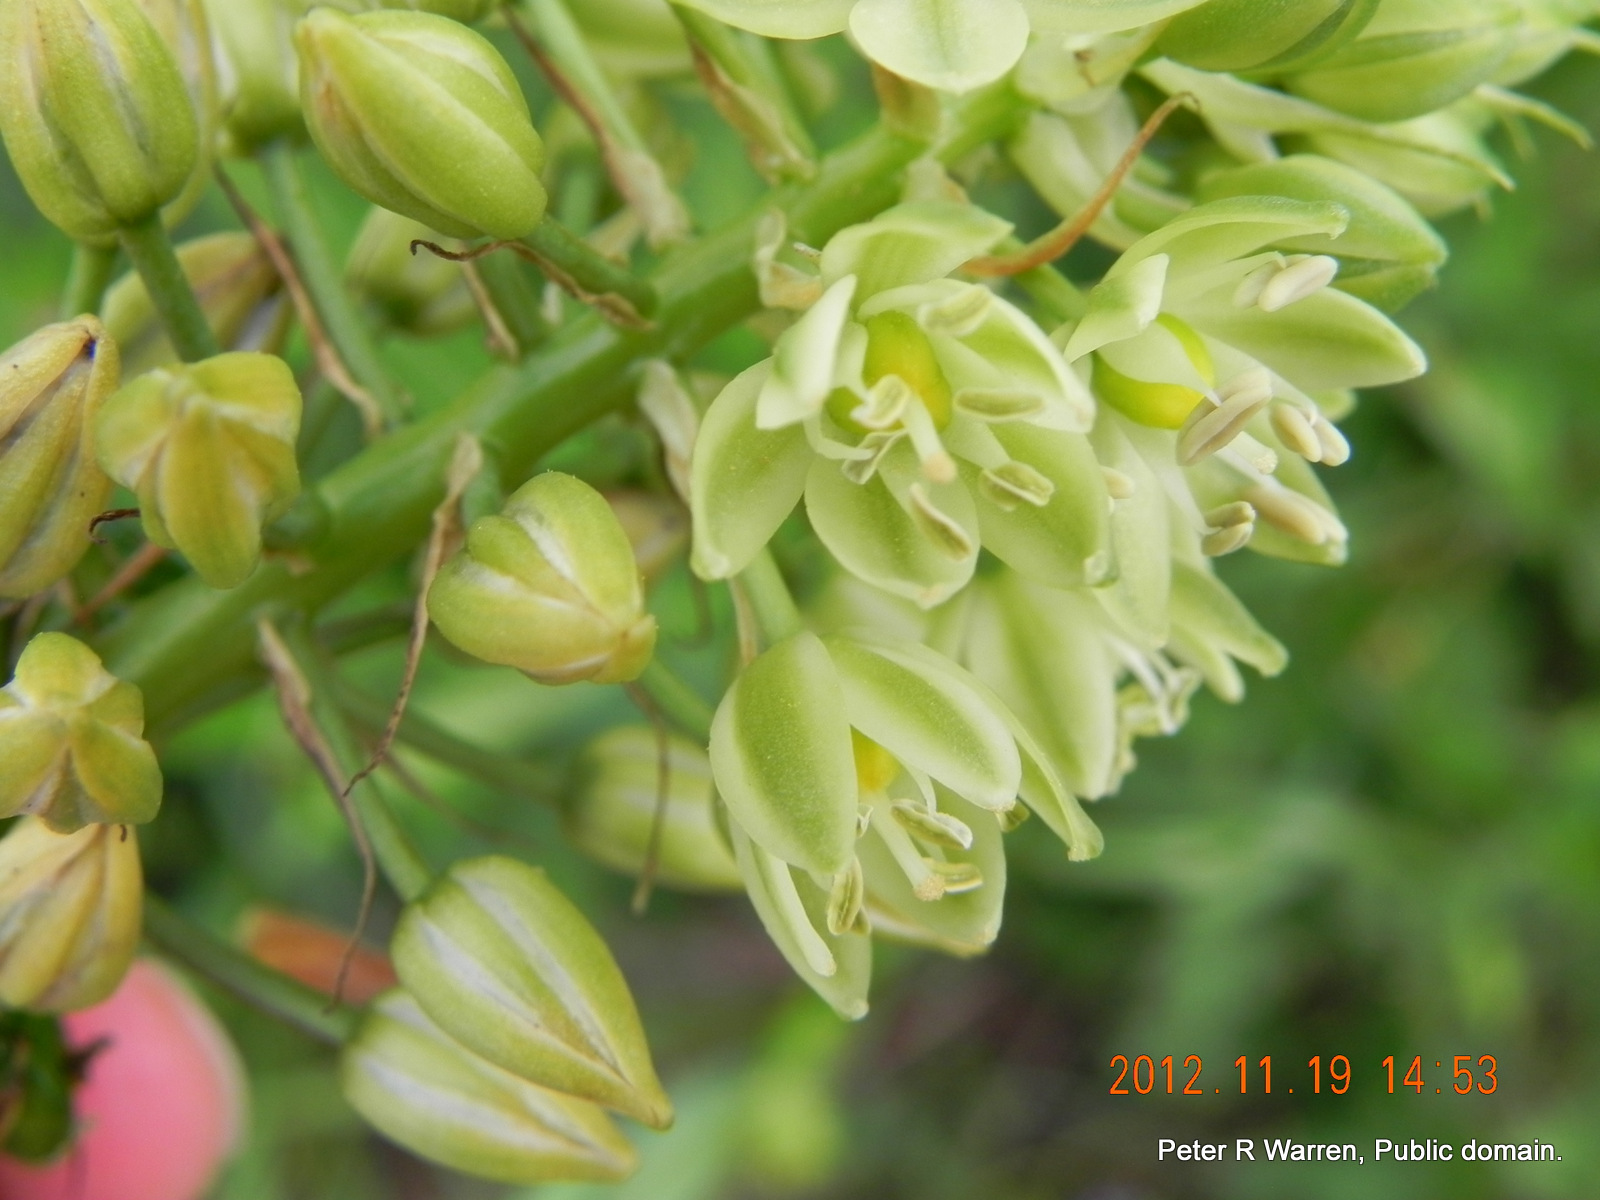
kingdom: Plantae
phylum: Tracheophyta
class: Liliopsida
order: Asparagales
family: Asparagaceae
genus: Albuca
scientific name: Albuca virens
